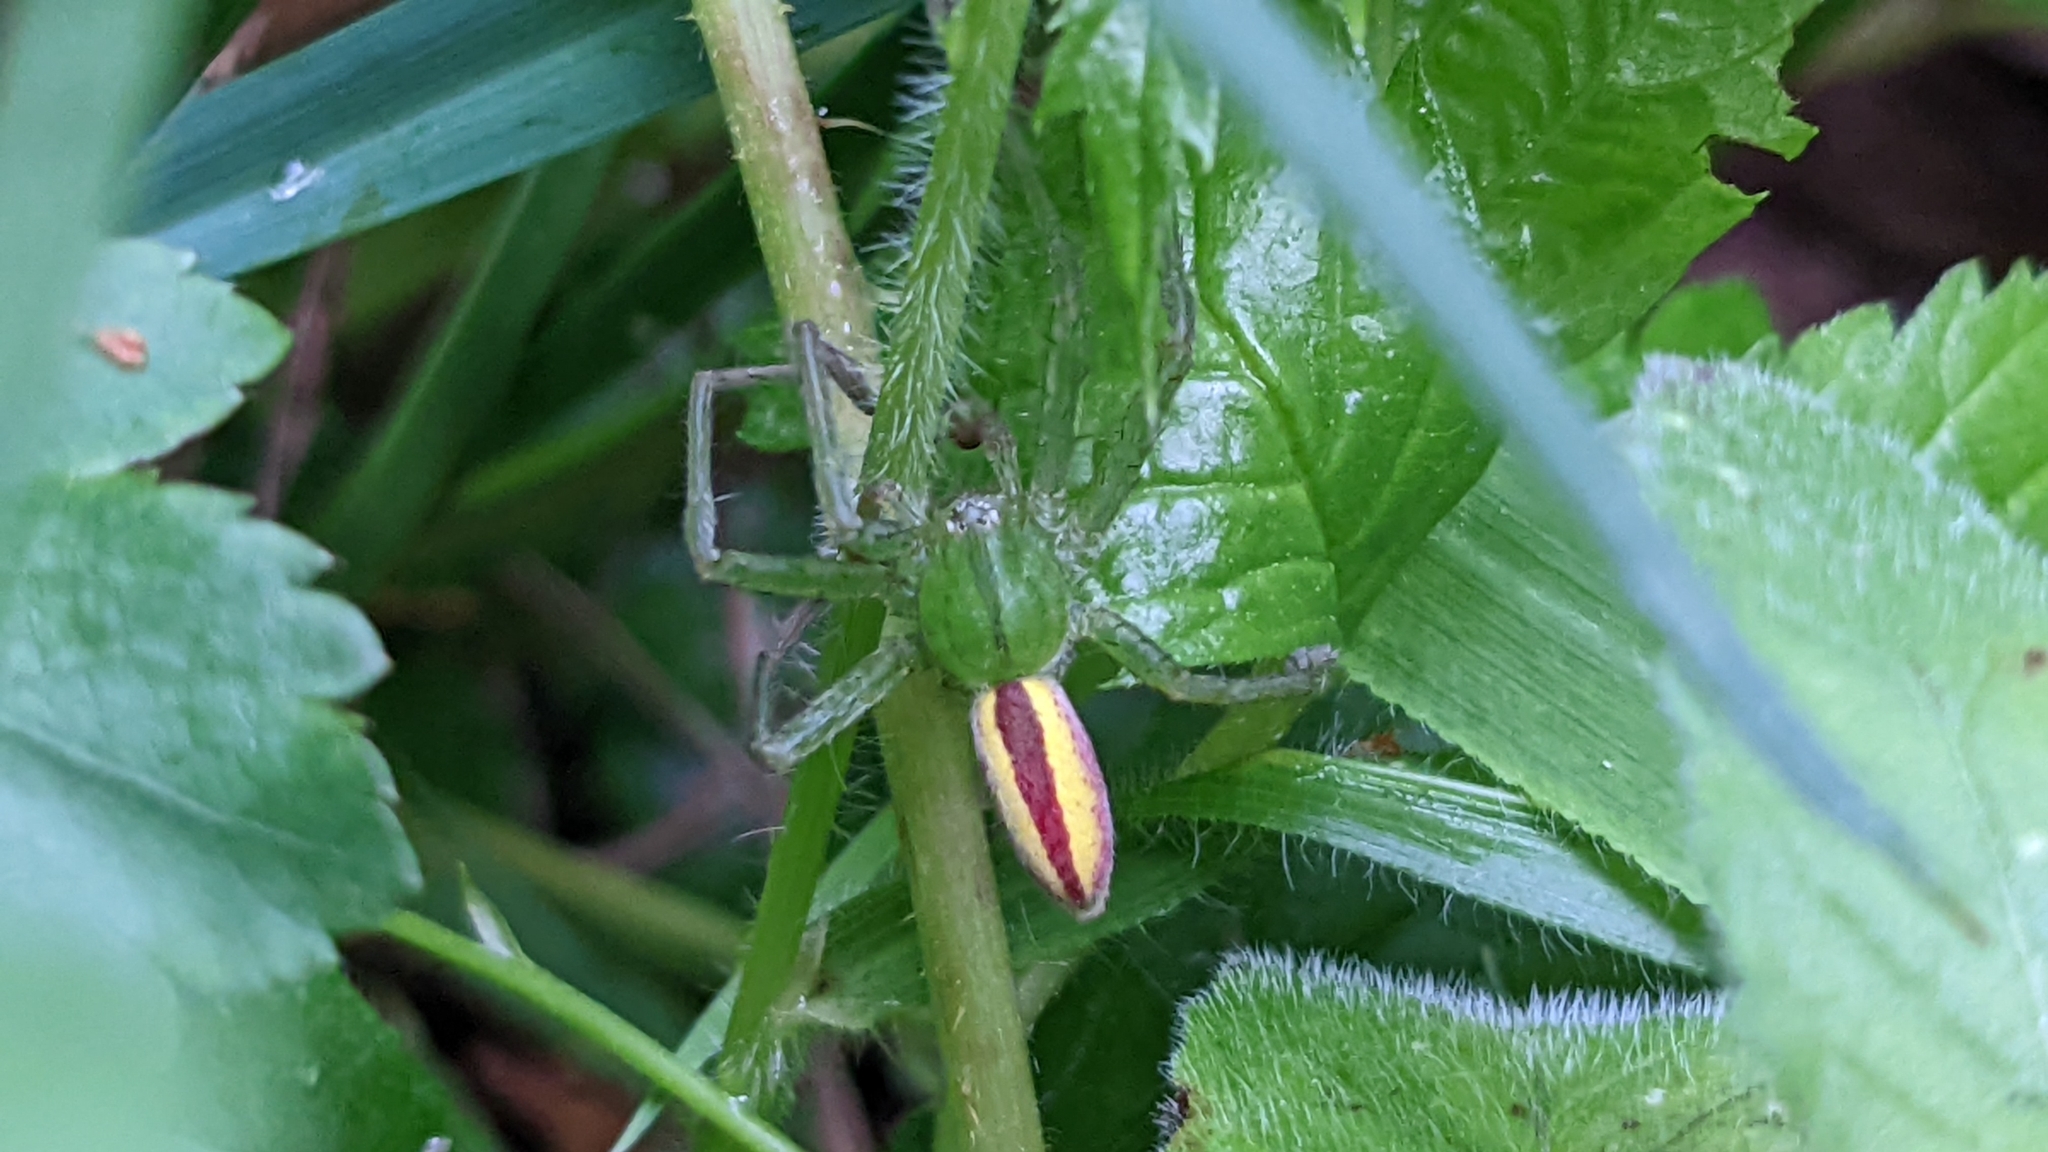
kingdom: Animalia
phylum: Arthropoda
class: Arachnida
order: Araneae
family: Sparassidae
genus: Micrommata
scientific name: Micrommata virescens
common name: Green spider
